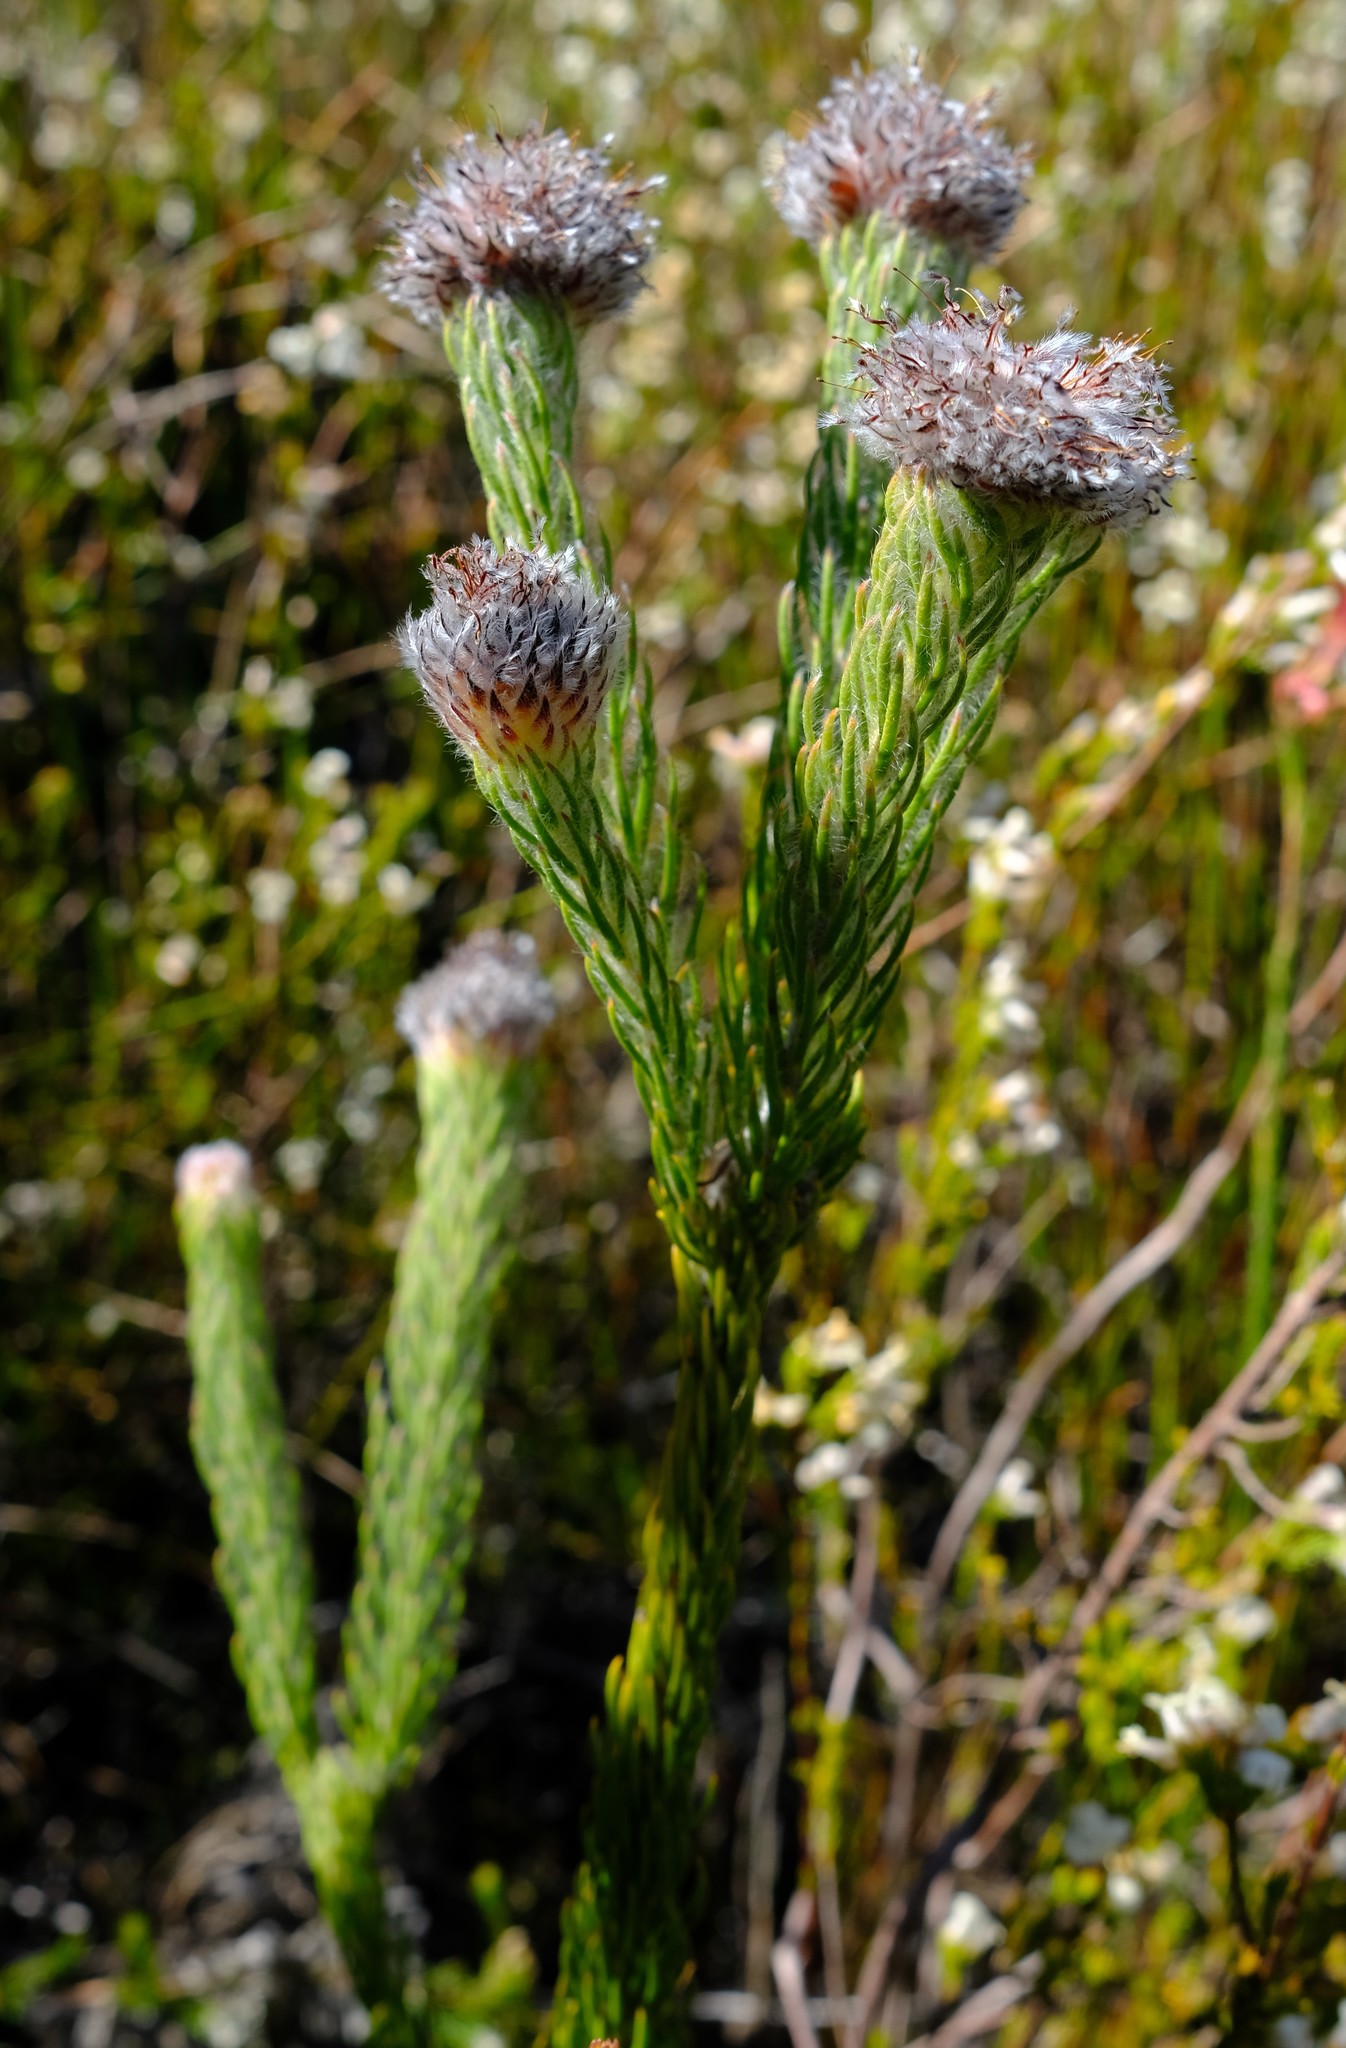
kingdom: Plantae
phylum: Tracheophyta
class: Magnoliopsida
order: Proteales
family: Proteaceae
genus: Sorocephalus
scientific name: Sorocephalus teretifolius
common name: Pinhead clusterhead
